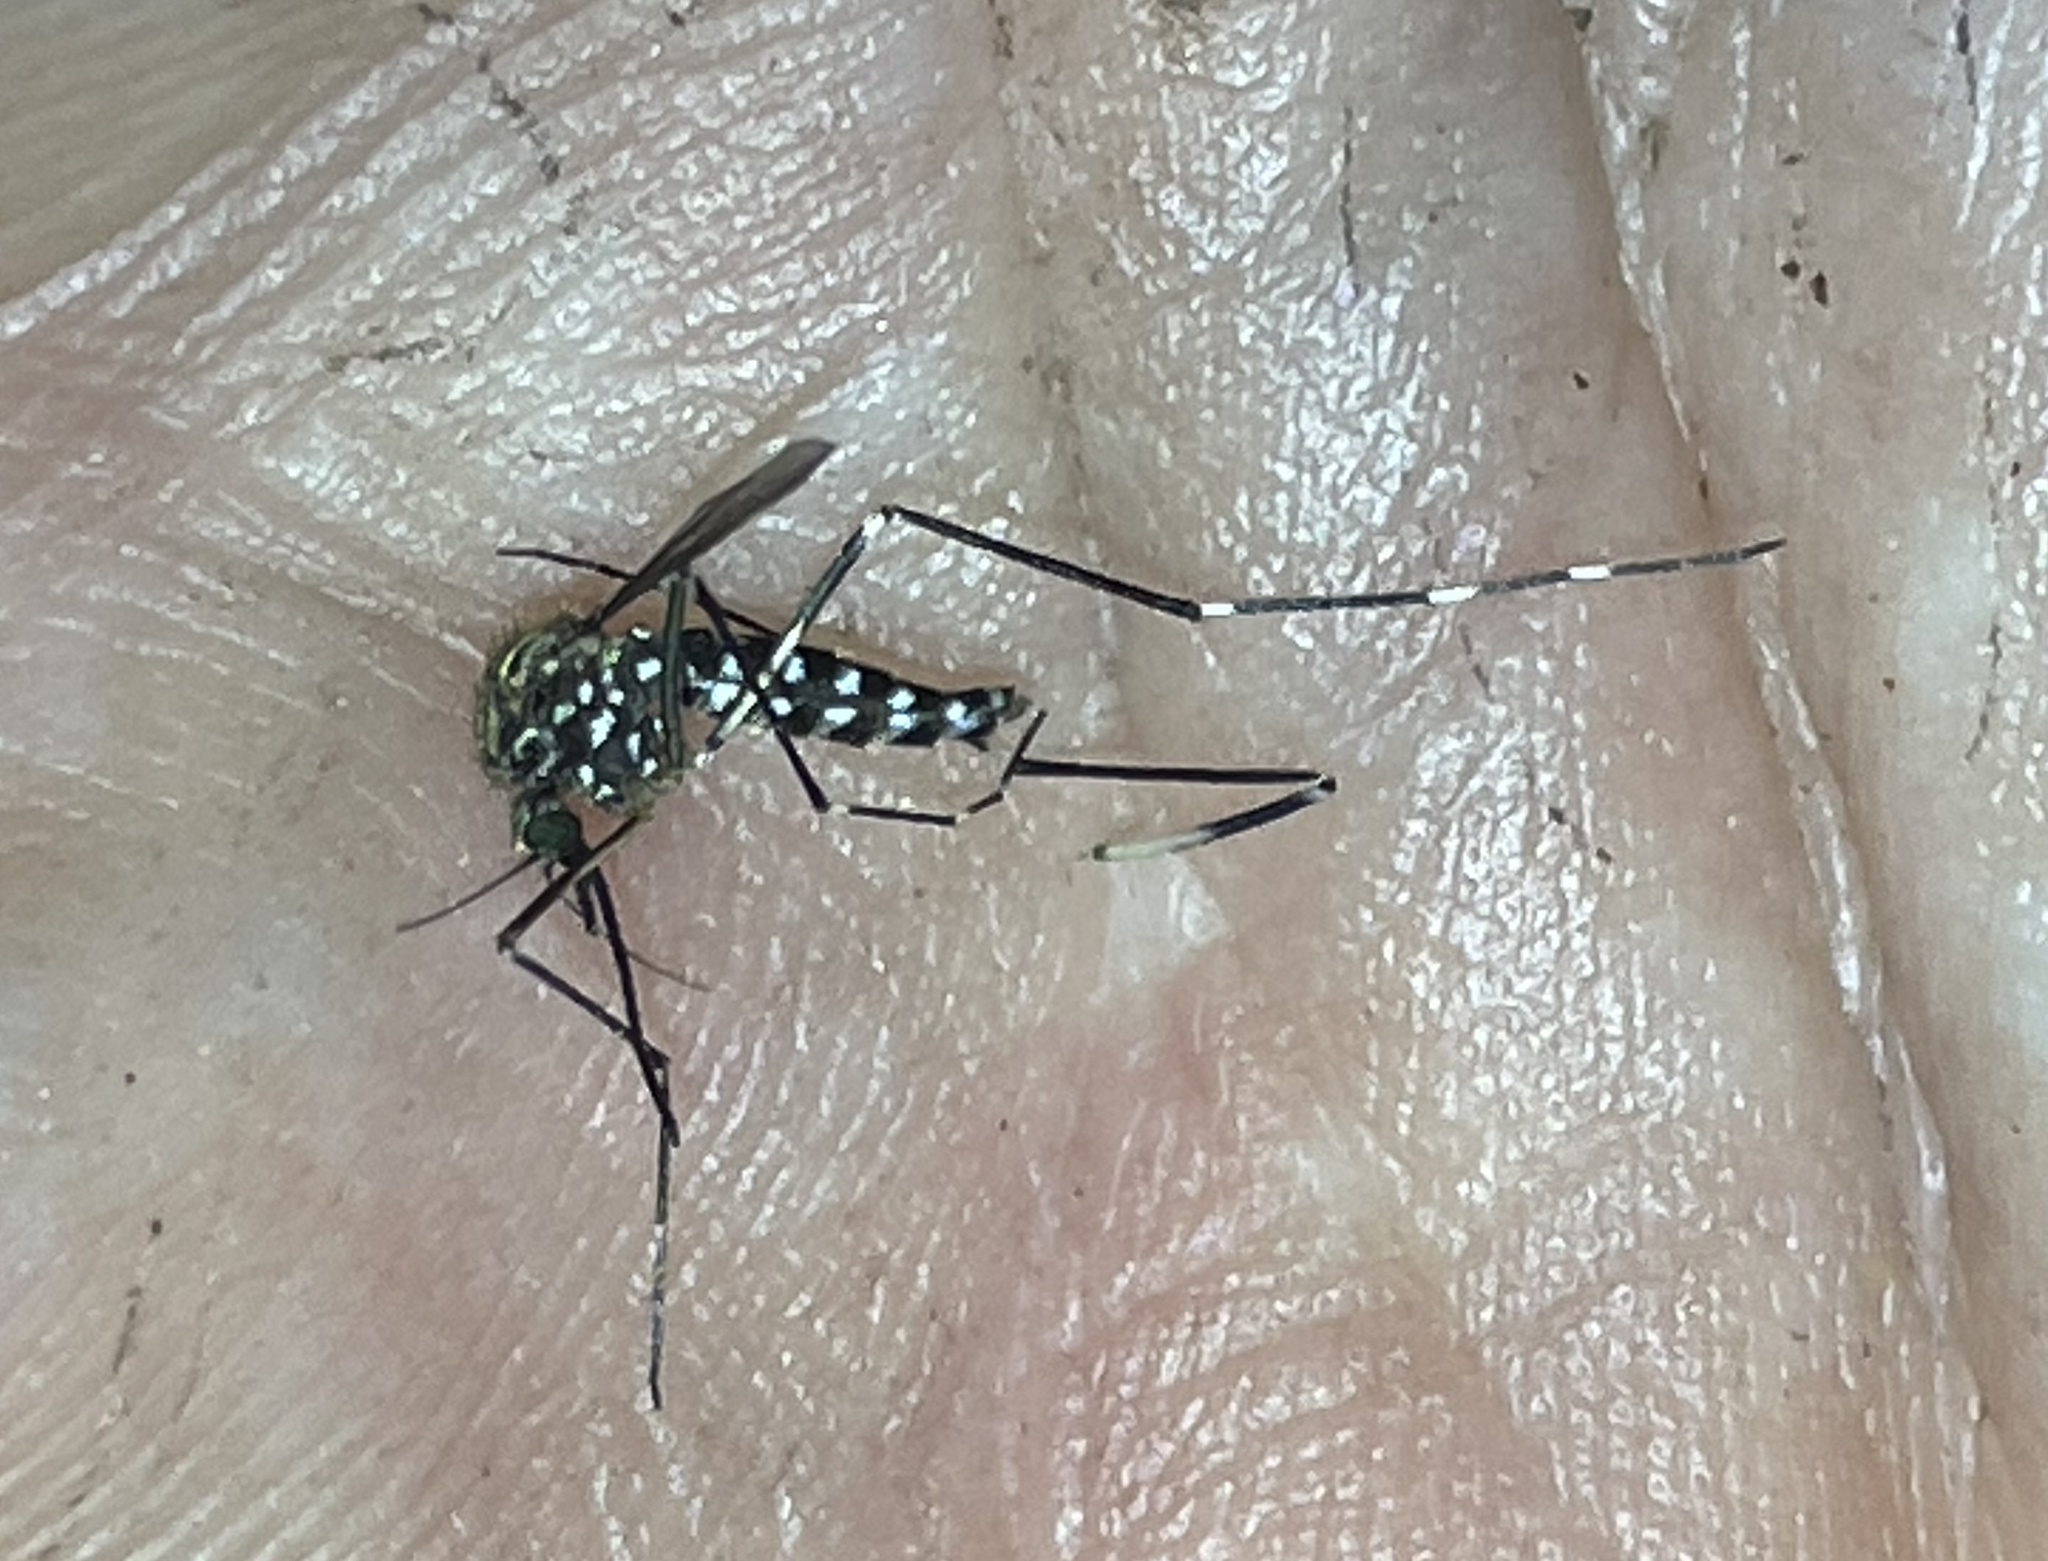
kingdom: Animalia
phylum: Arthropoda
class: Insecta
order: Diptera
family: Culicidae
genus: Aedes
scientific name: Aedes japonicus
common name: Asian bush mosquito
